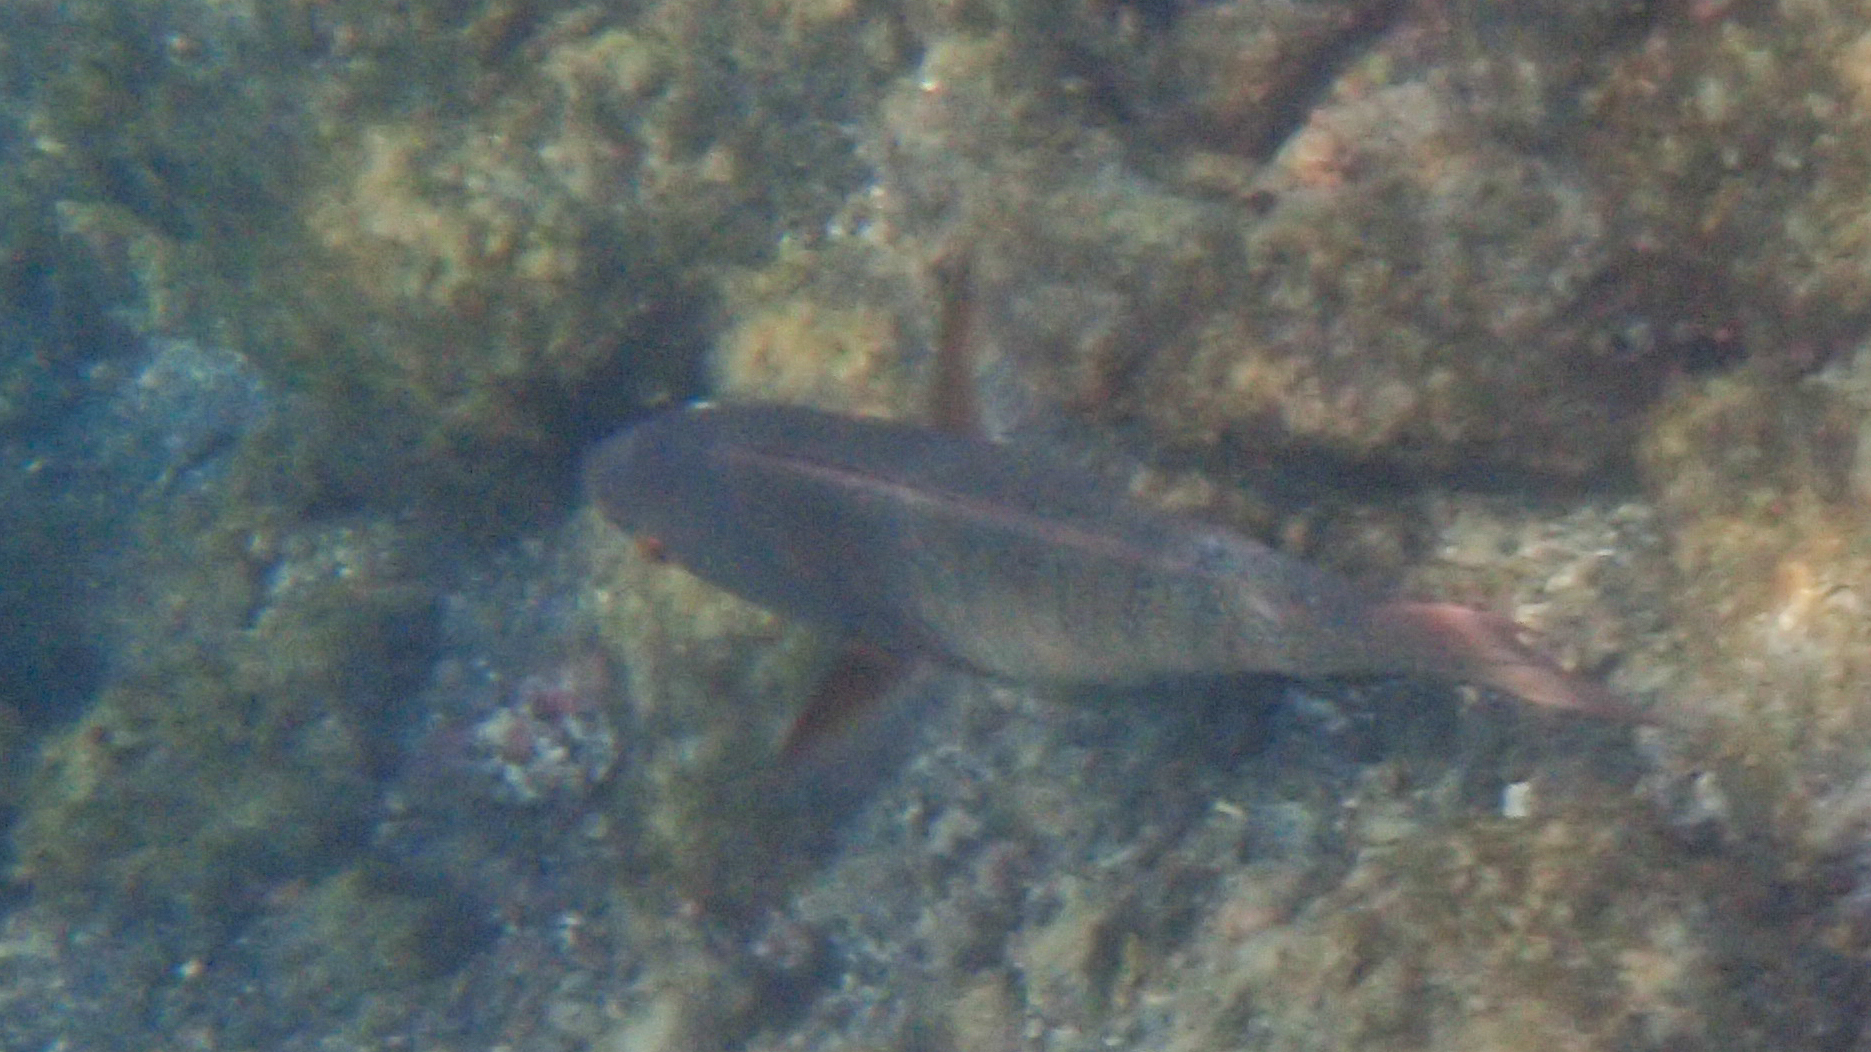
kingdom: Animalia
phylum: Chordata
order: Perciformes
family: Scaridae
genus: Scarus
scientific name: Scarus rubroviolaceus
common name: Ember parrotfish
